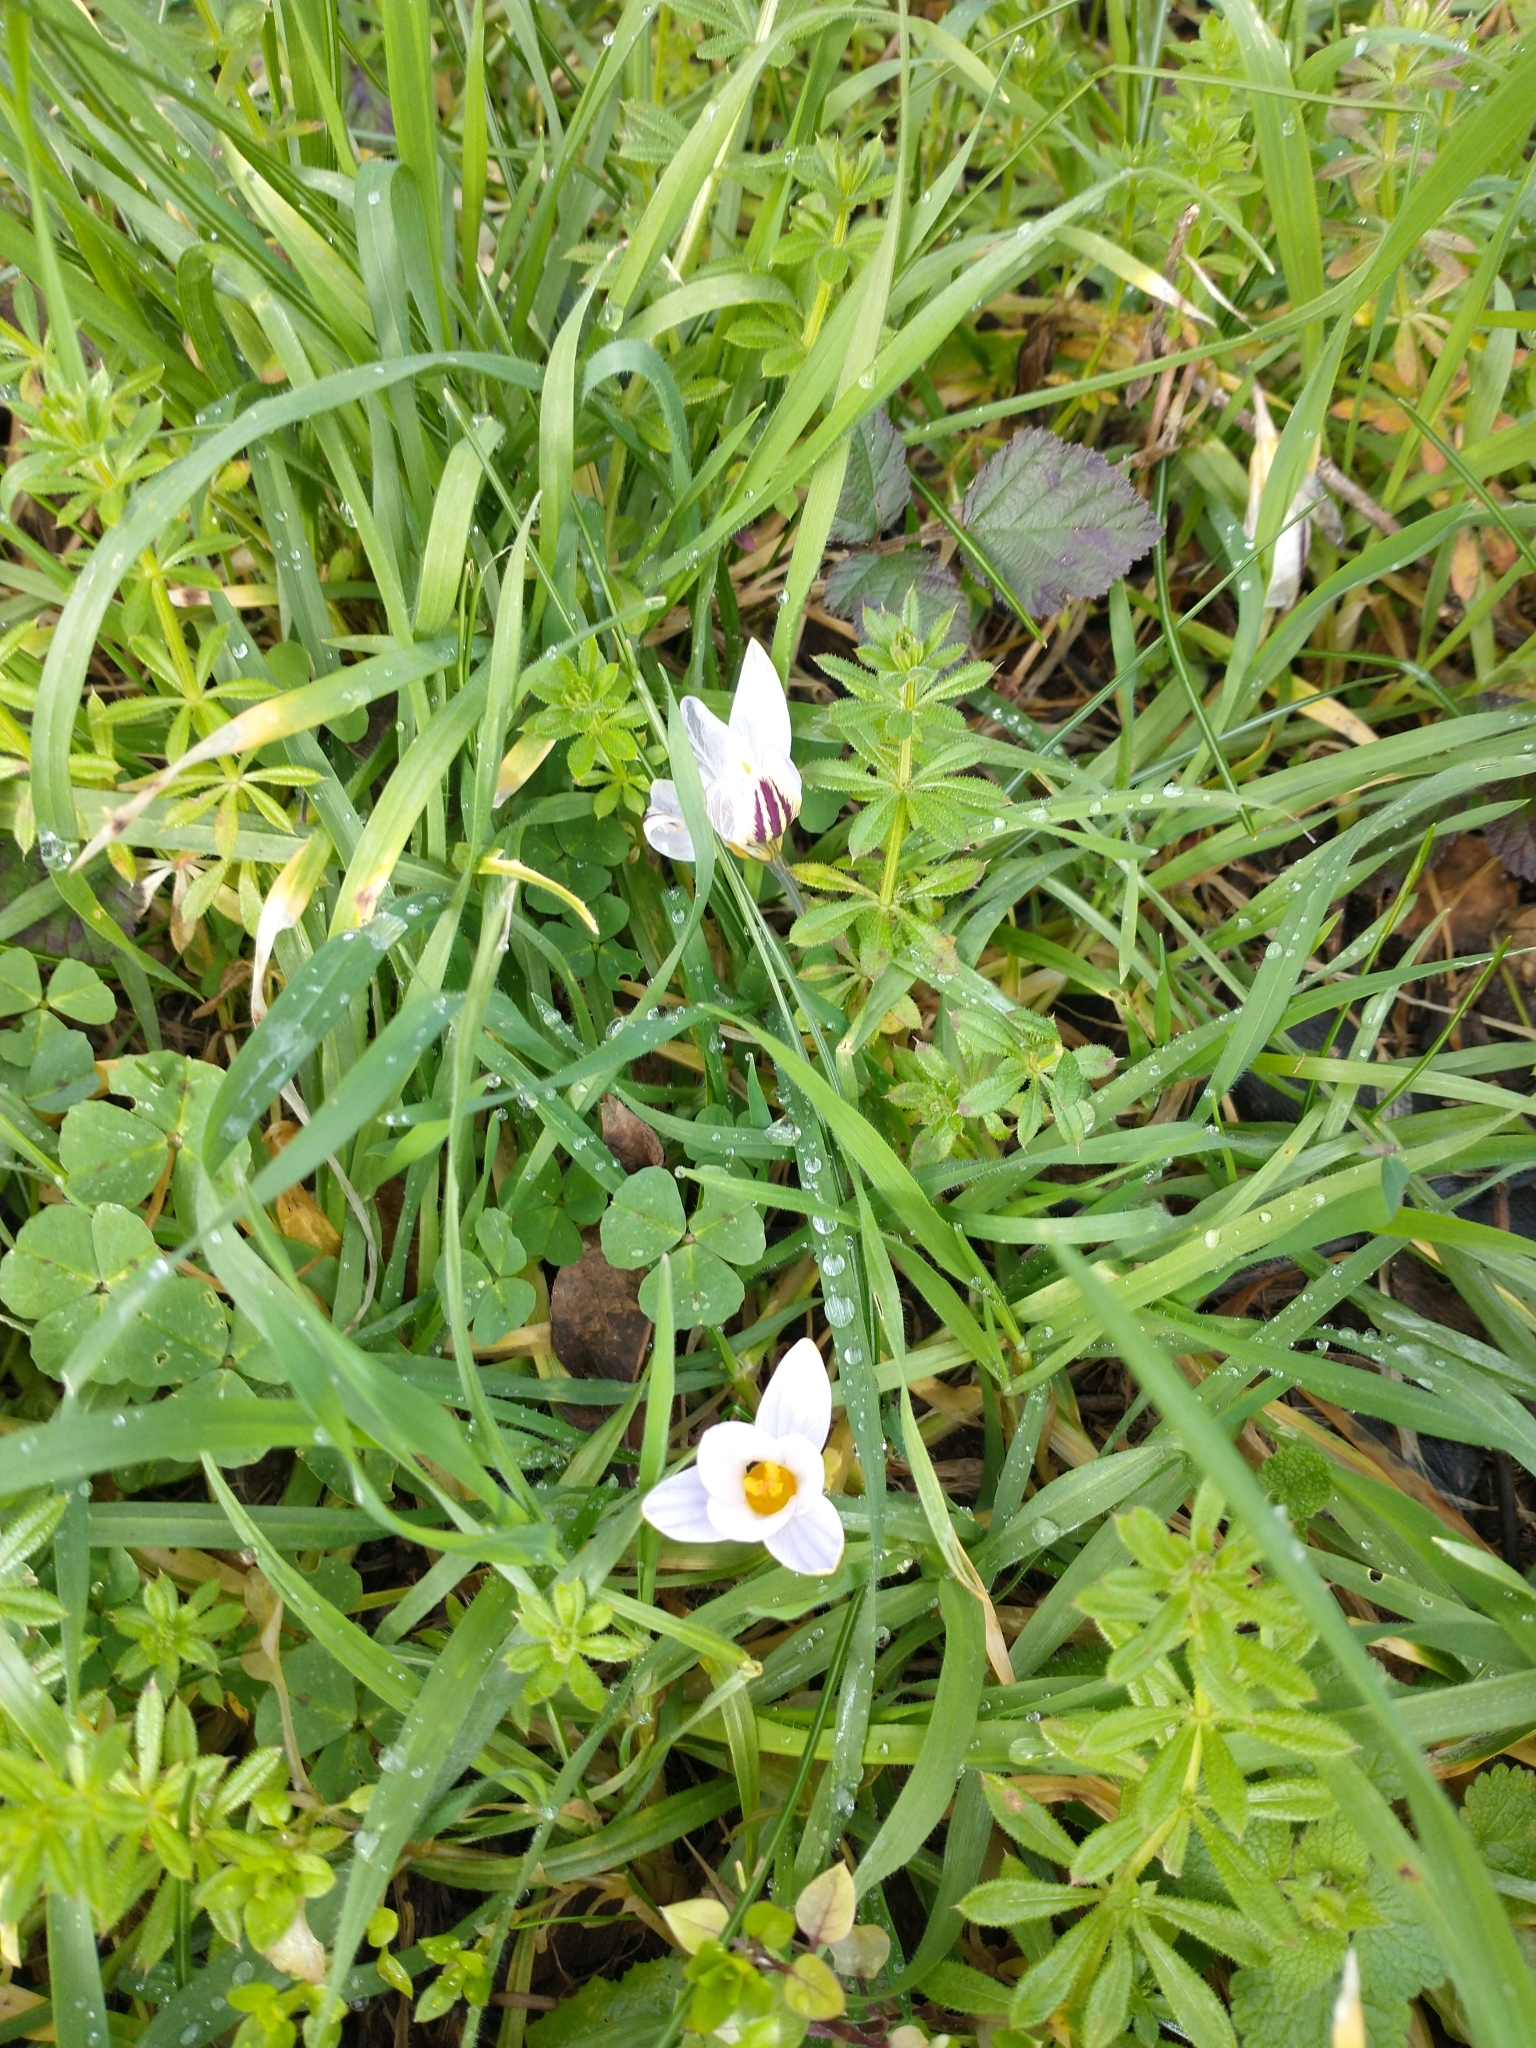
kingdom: Plantae
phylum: Tracheophyta
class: Liliopsida
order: Asparagales
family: Iridaceae
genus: Crocus
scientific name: Crocus biflorus
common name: Silvery crocus
